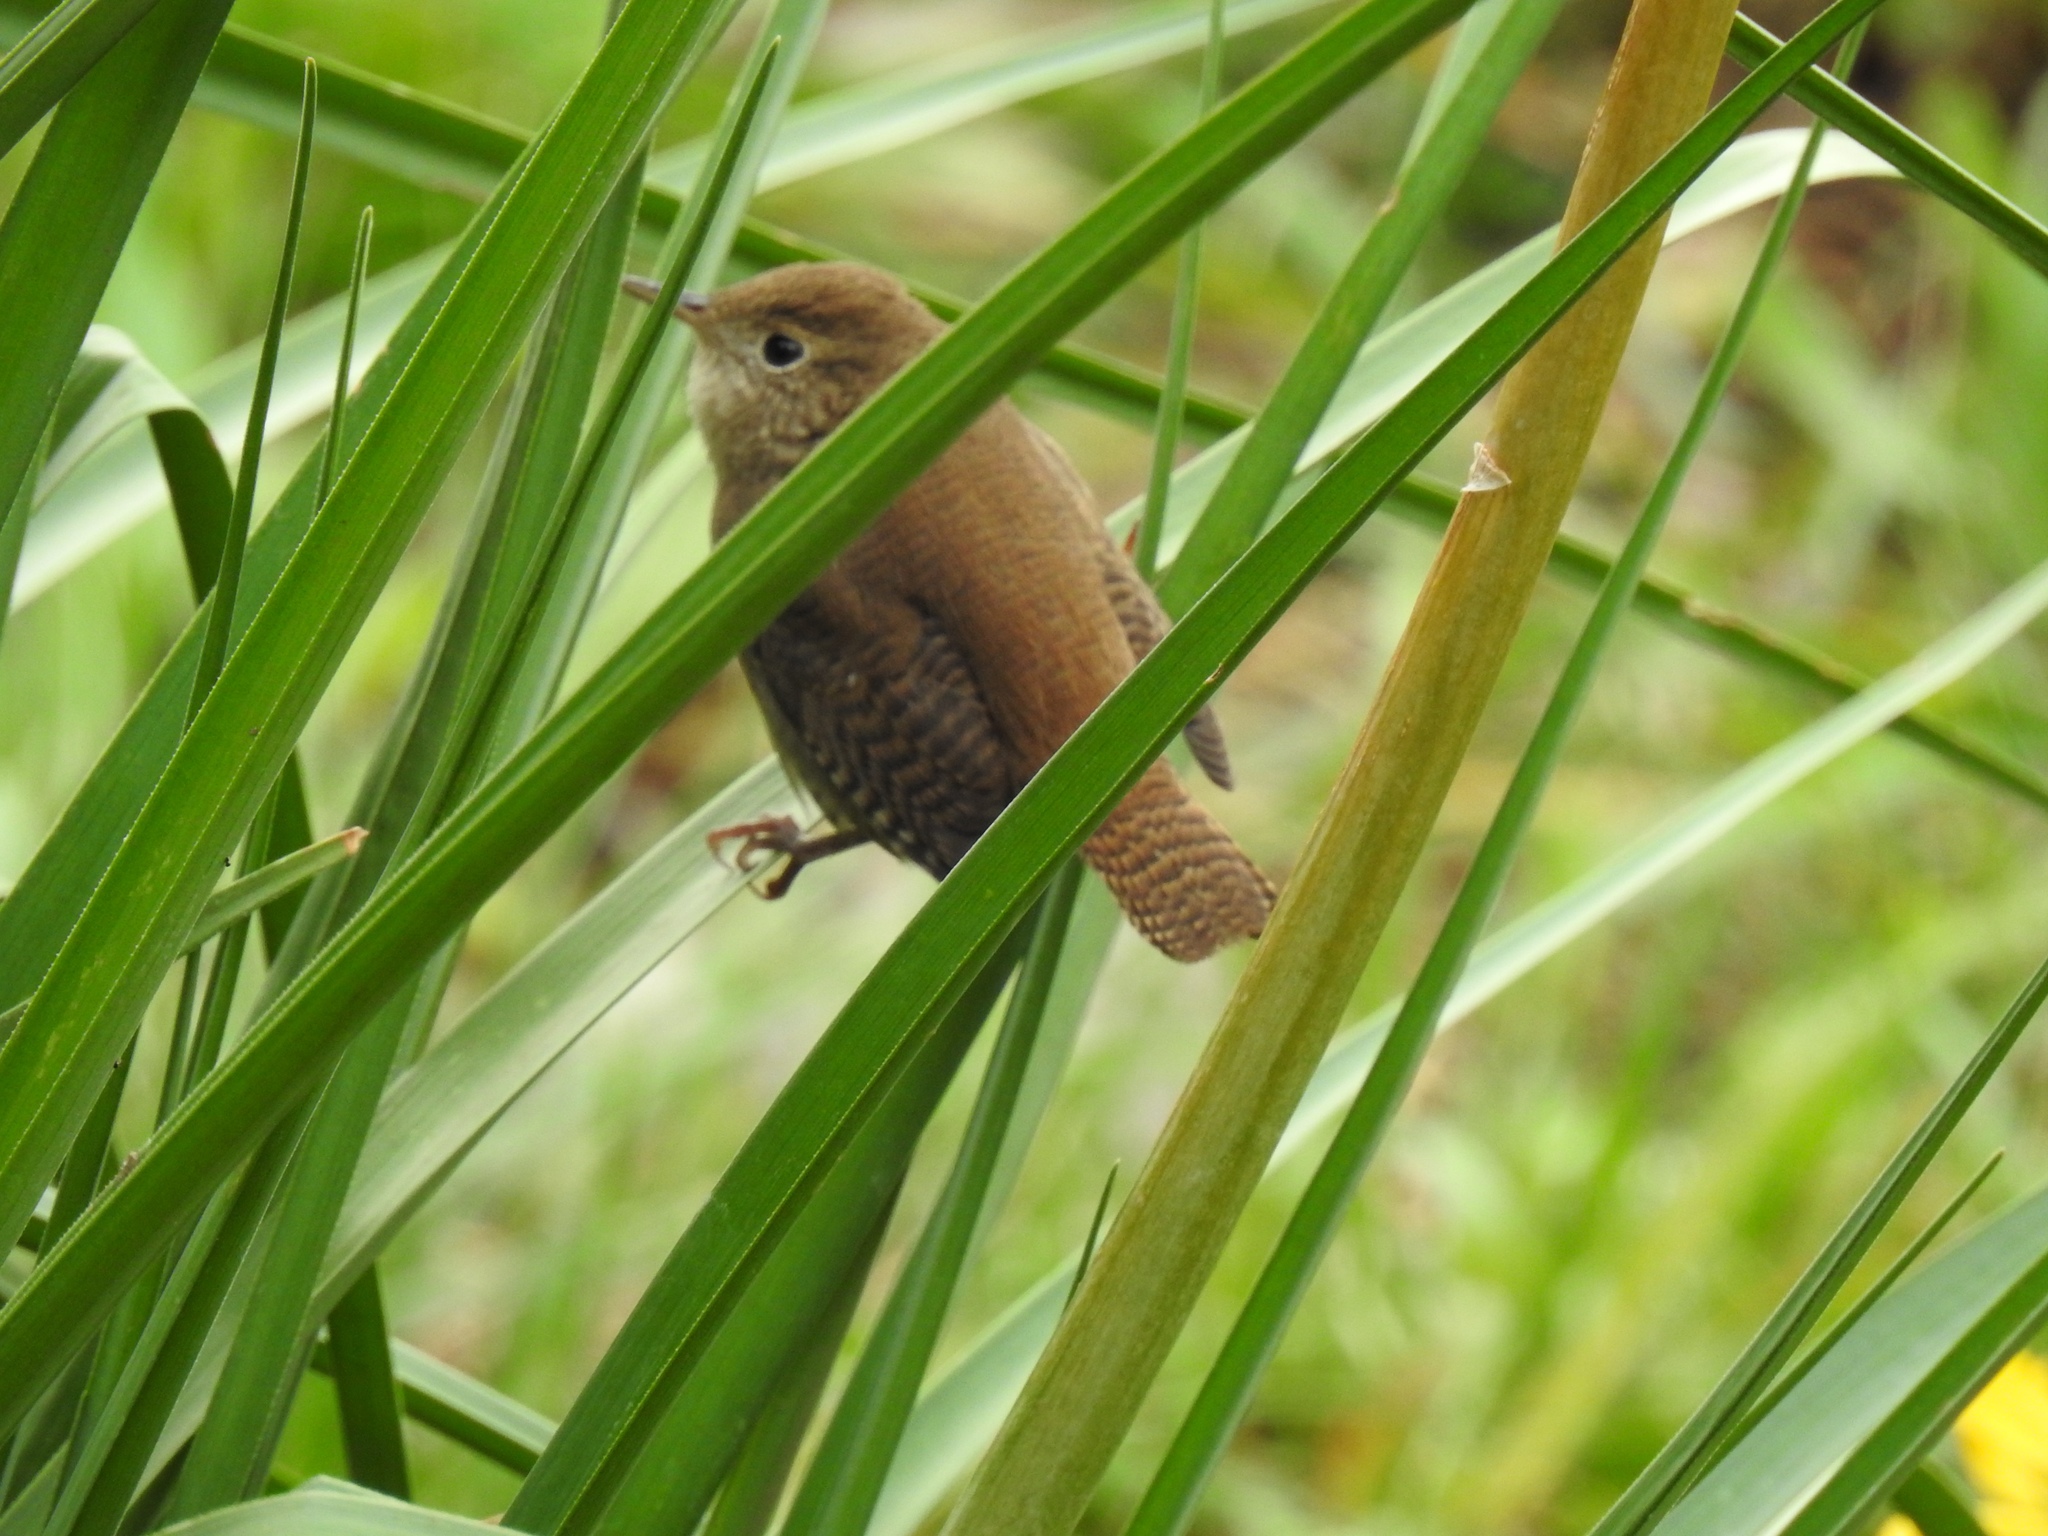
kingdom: Animalia
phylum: Chordata
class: Aves
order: Passeriformes
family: Troglodytidae
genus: Troglodytes
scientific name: Troglodytes aedon
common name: House wren
